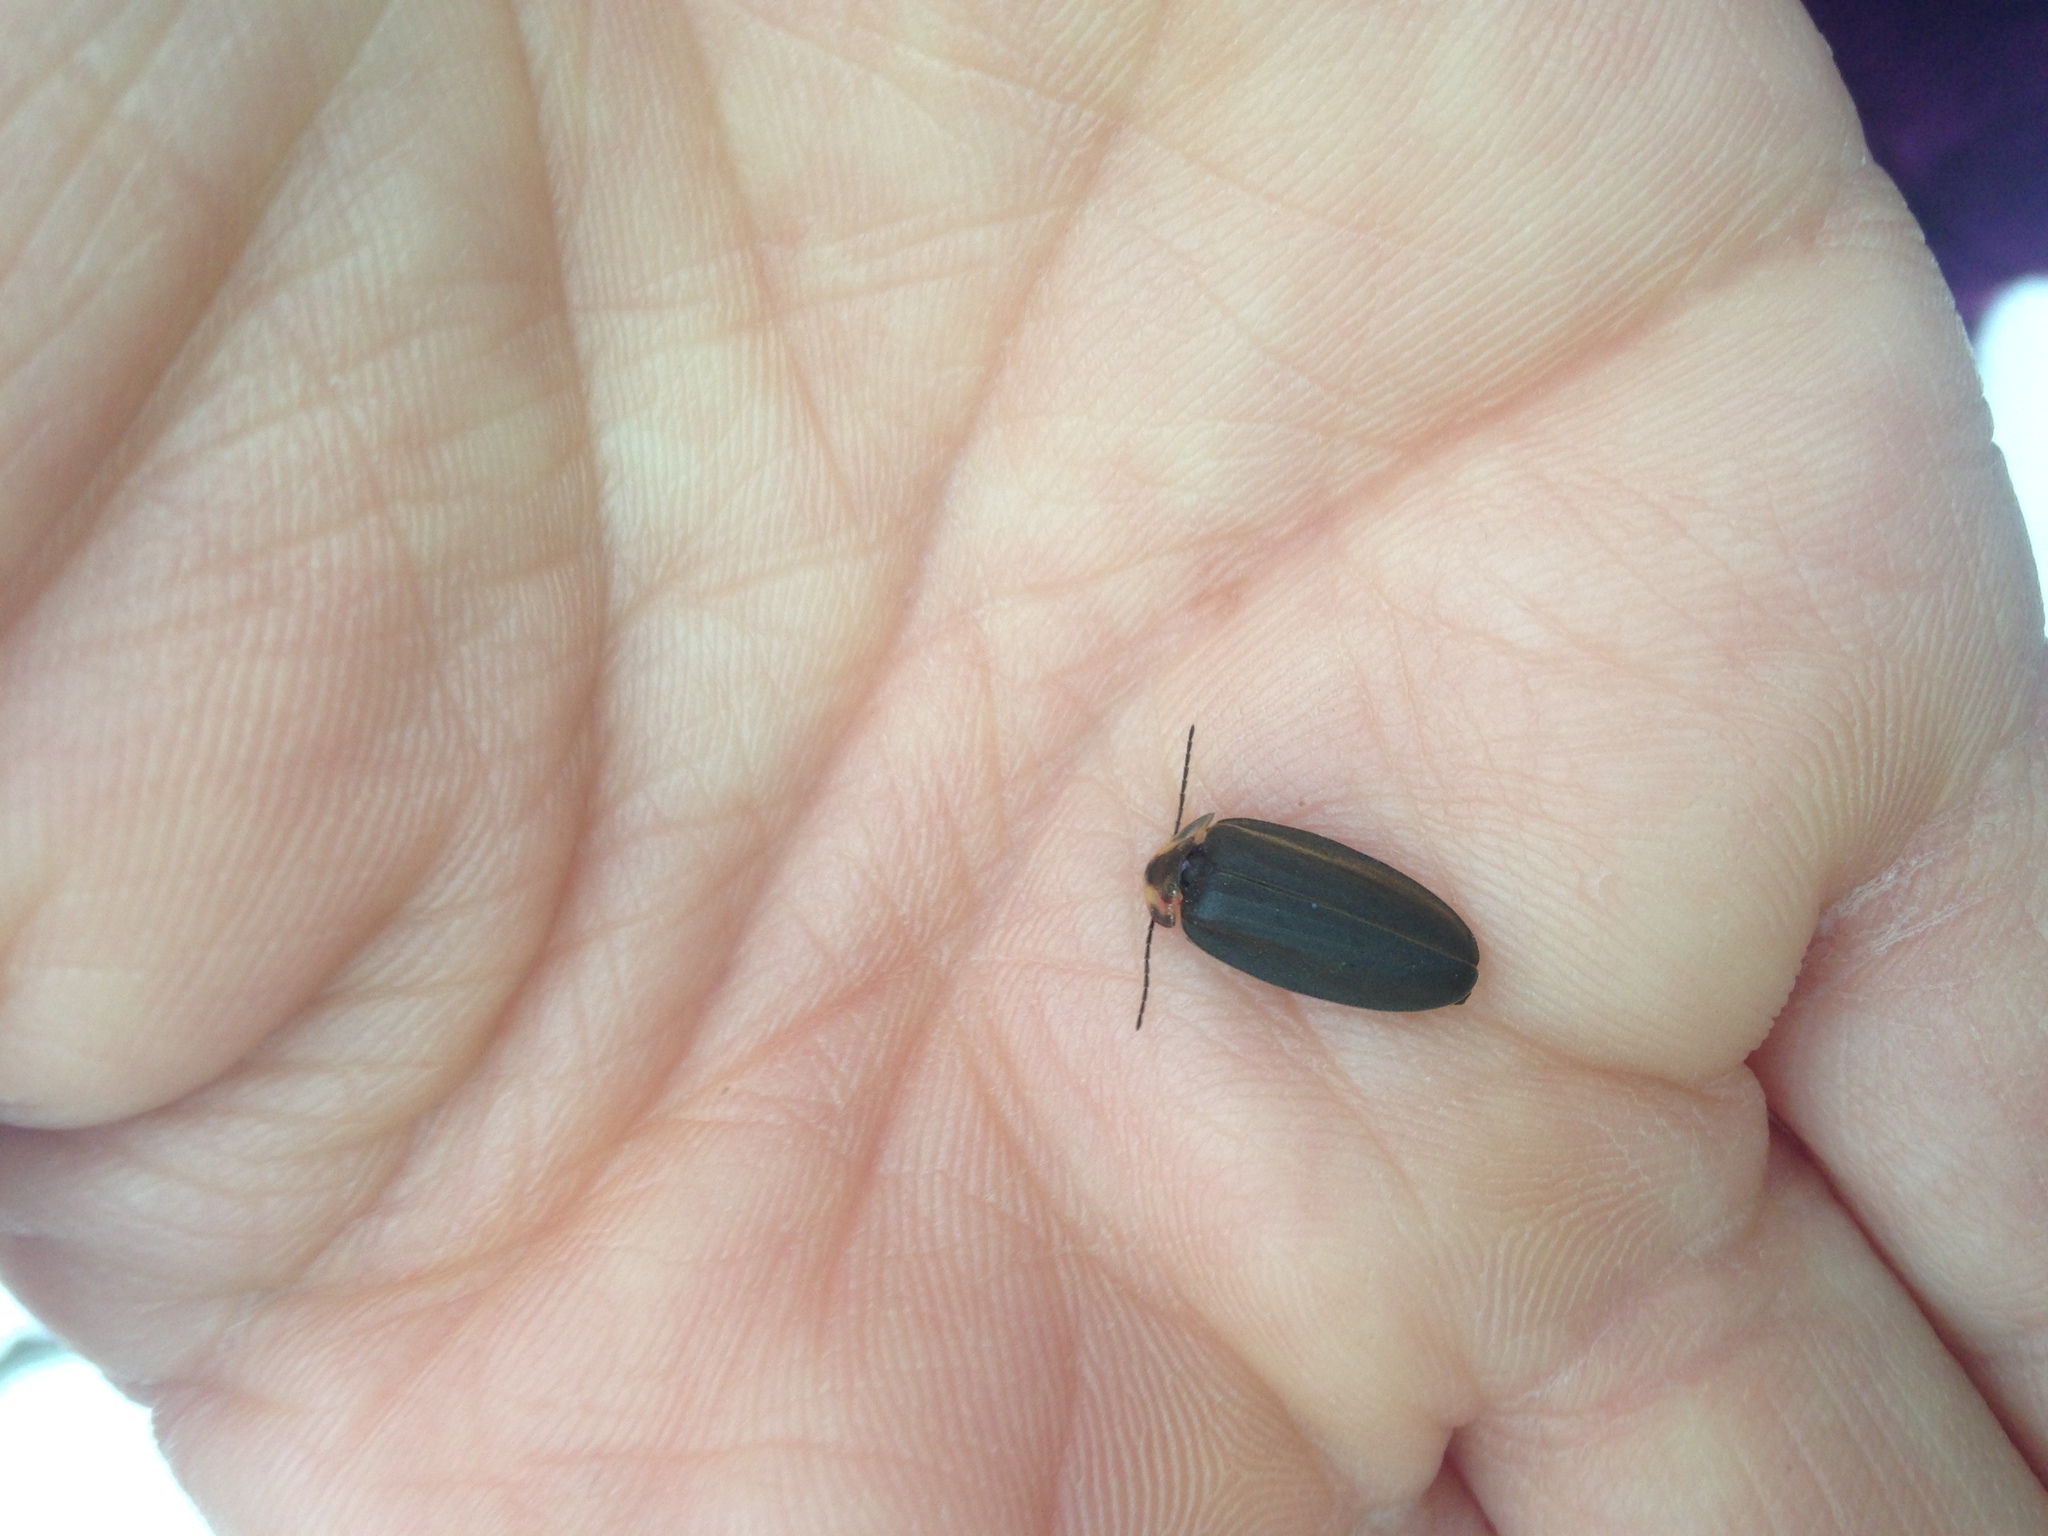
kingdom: Animalia
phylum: Arthropoda
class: Insecta
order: Coleoptera
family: Lampyridae
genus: Photinus
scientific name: Photinus corrusca
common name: Winter firefly
